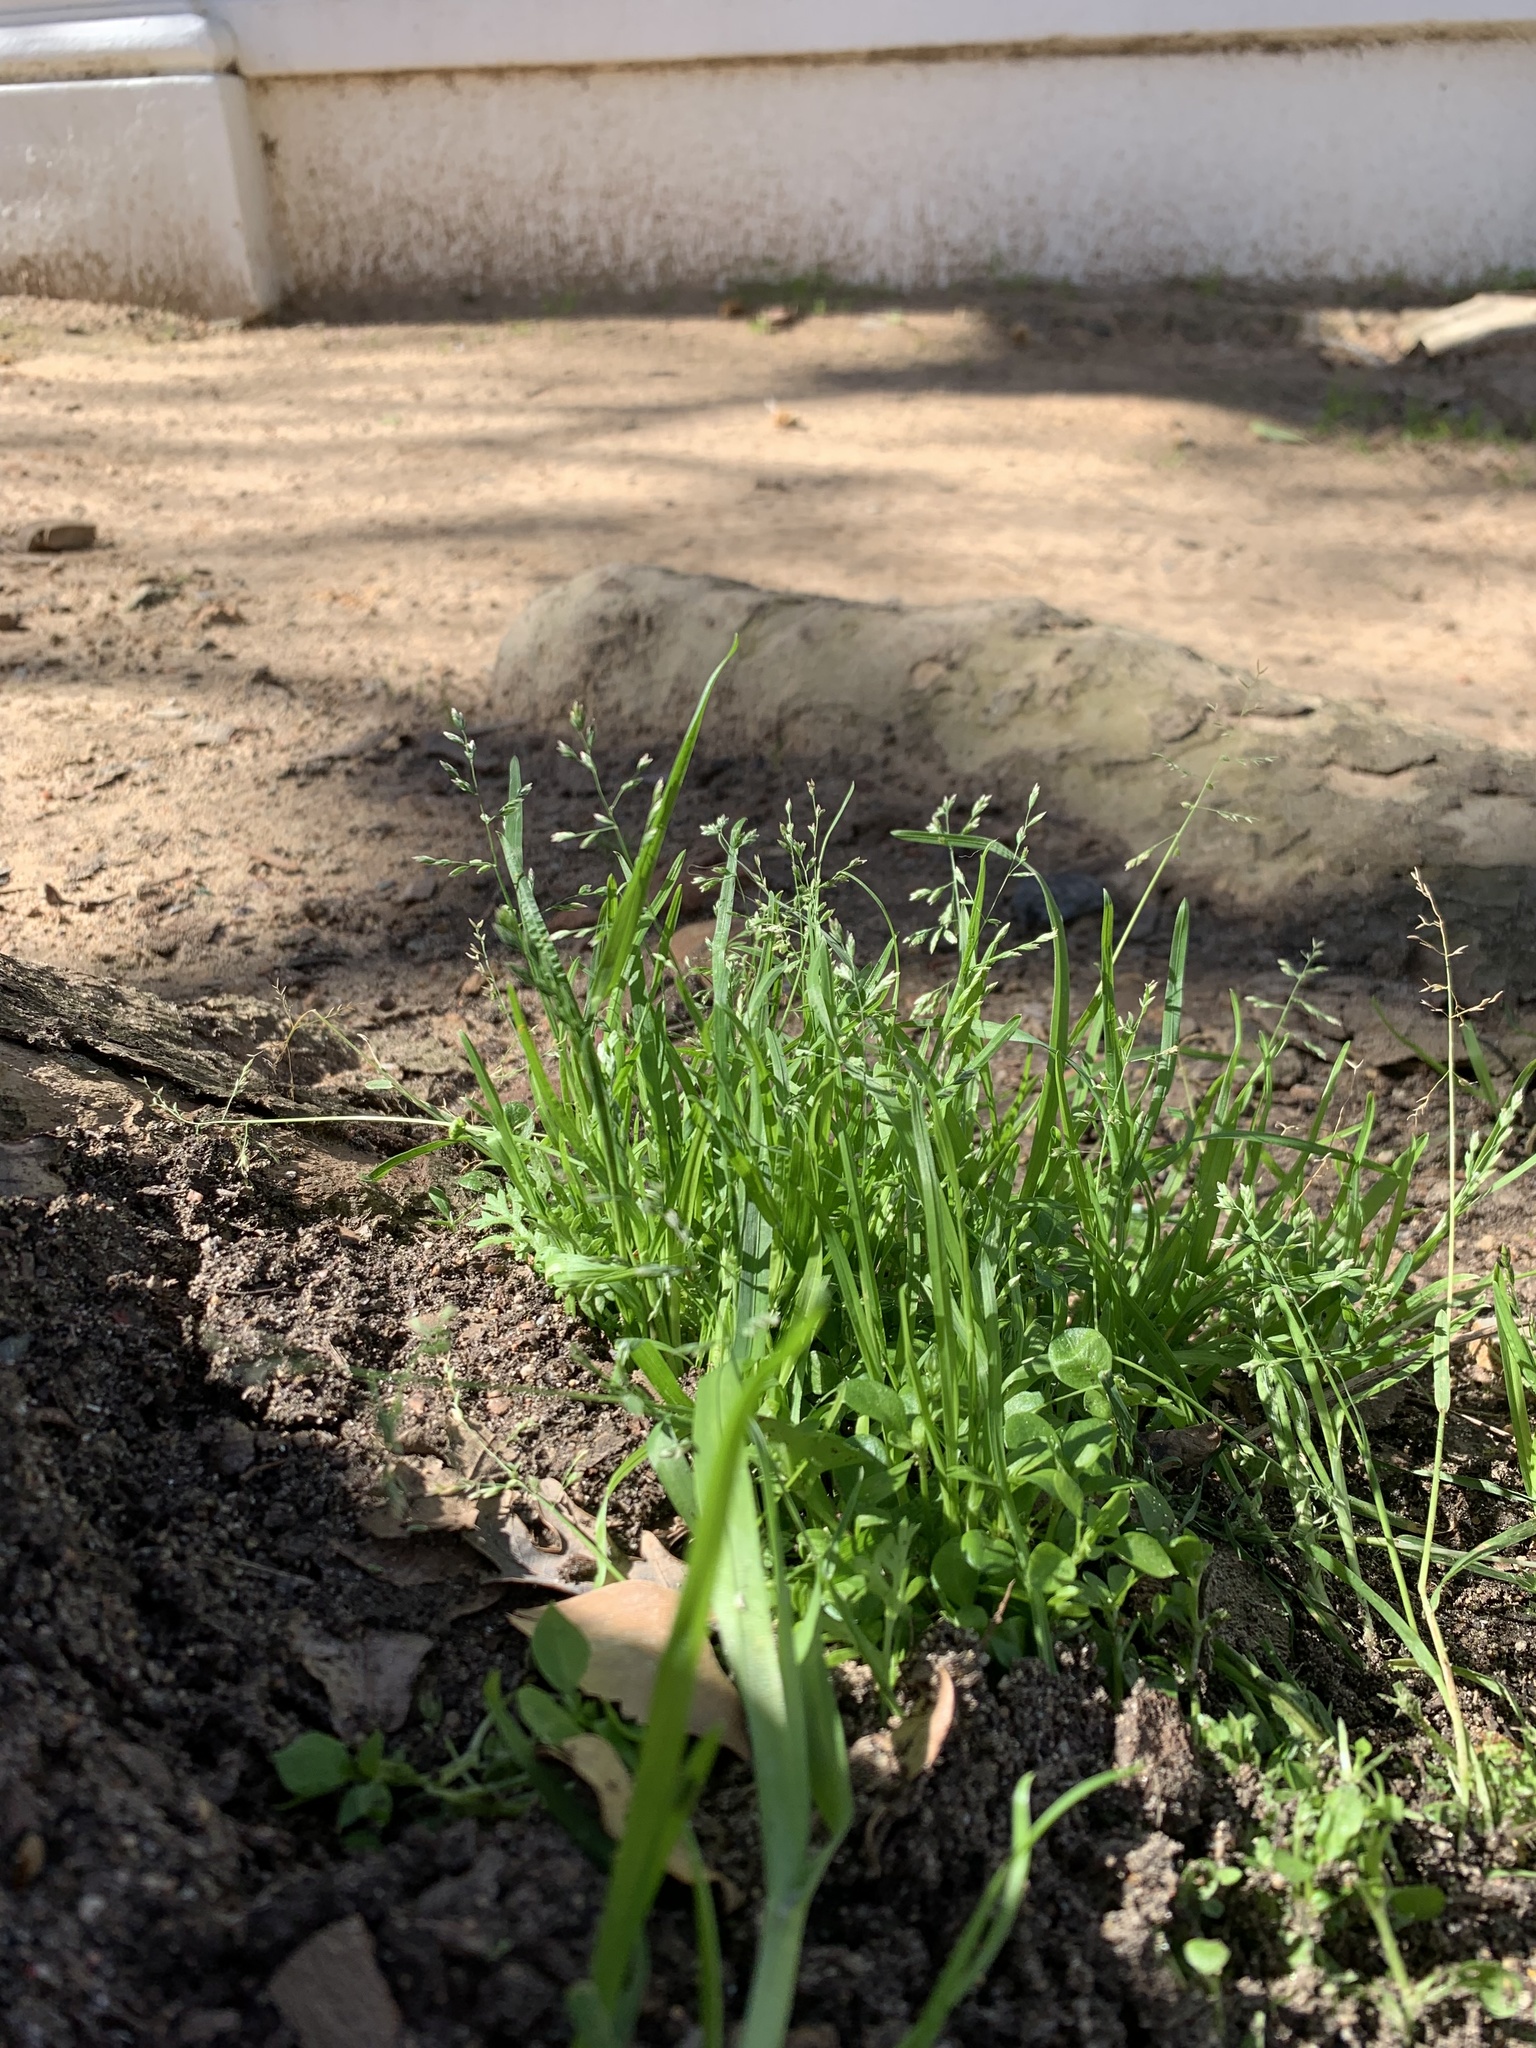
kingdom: Plantae
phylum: Tracheophyta
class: Liliopsida
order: Poales
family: Poaceae
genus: Poa
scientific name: Poa annua
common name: Annual bluegrass
